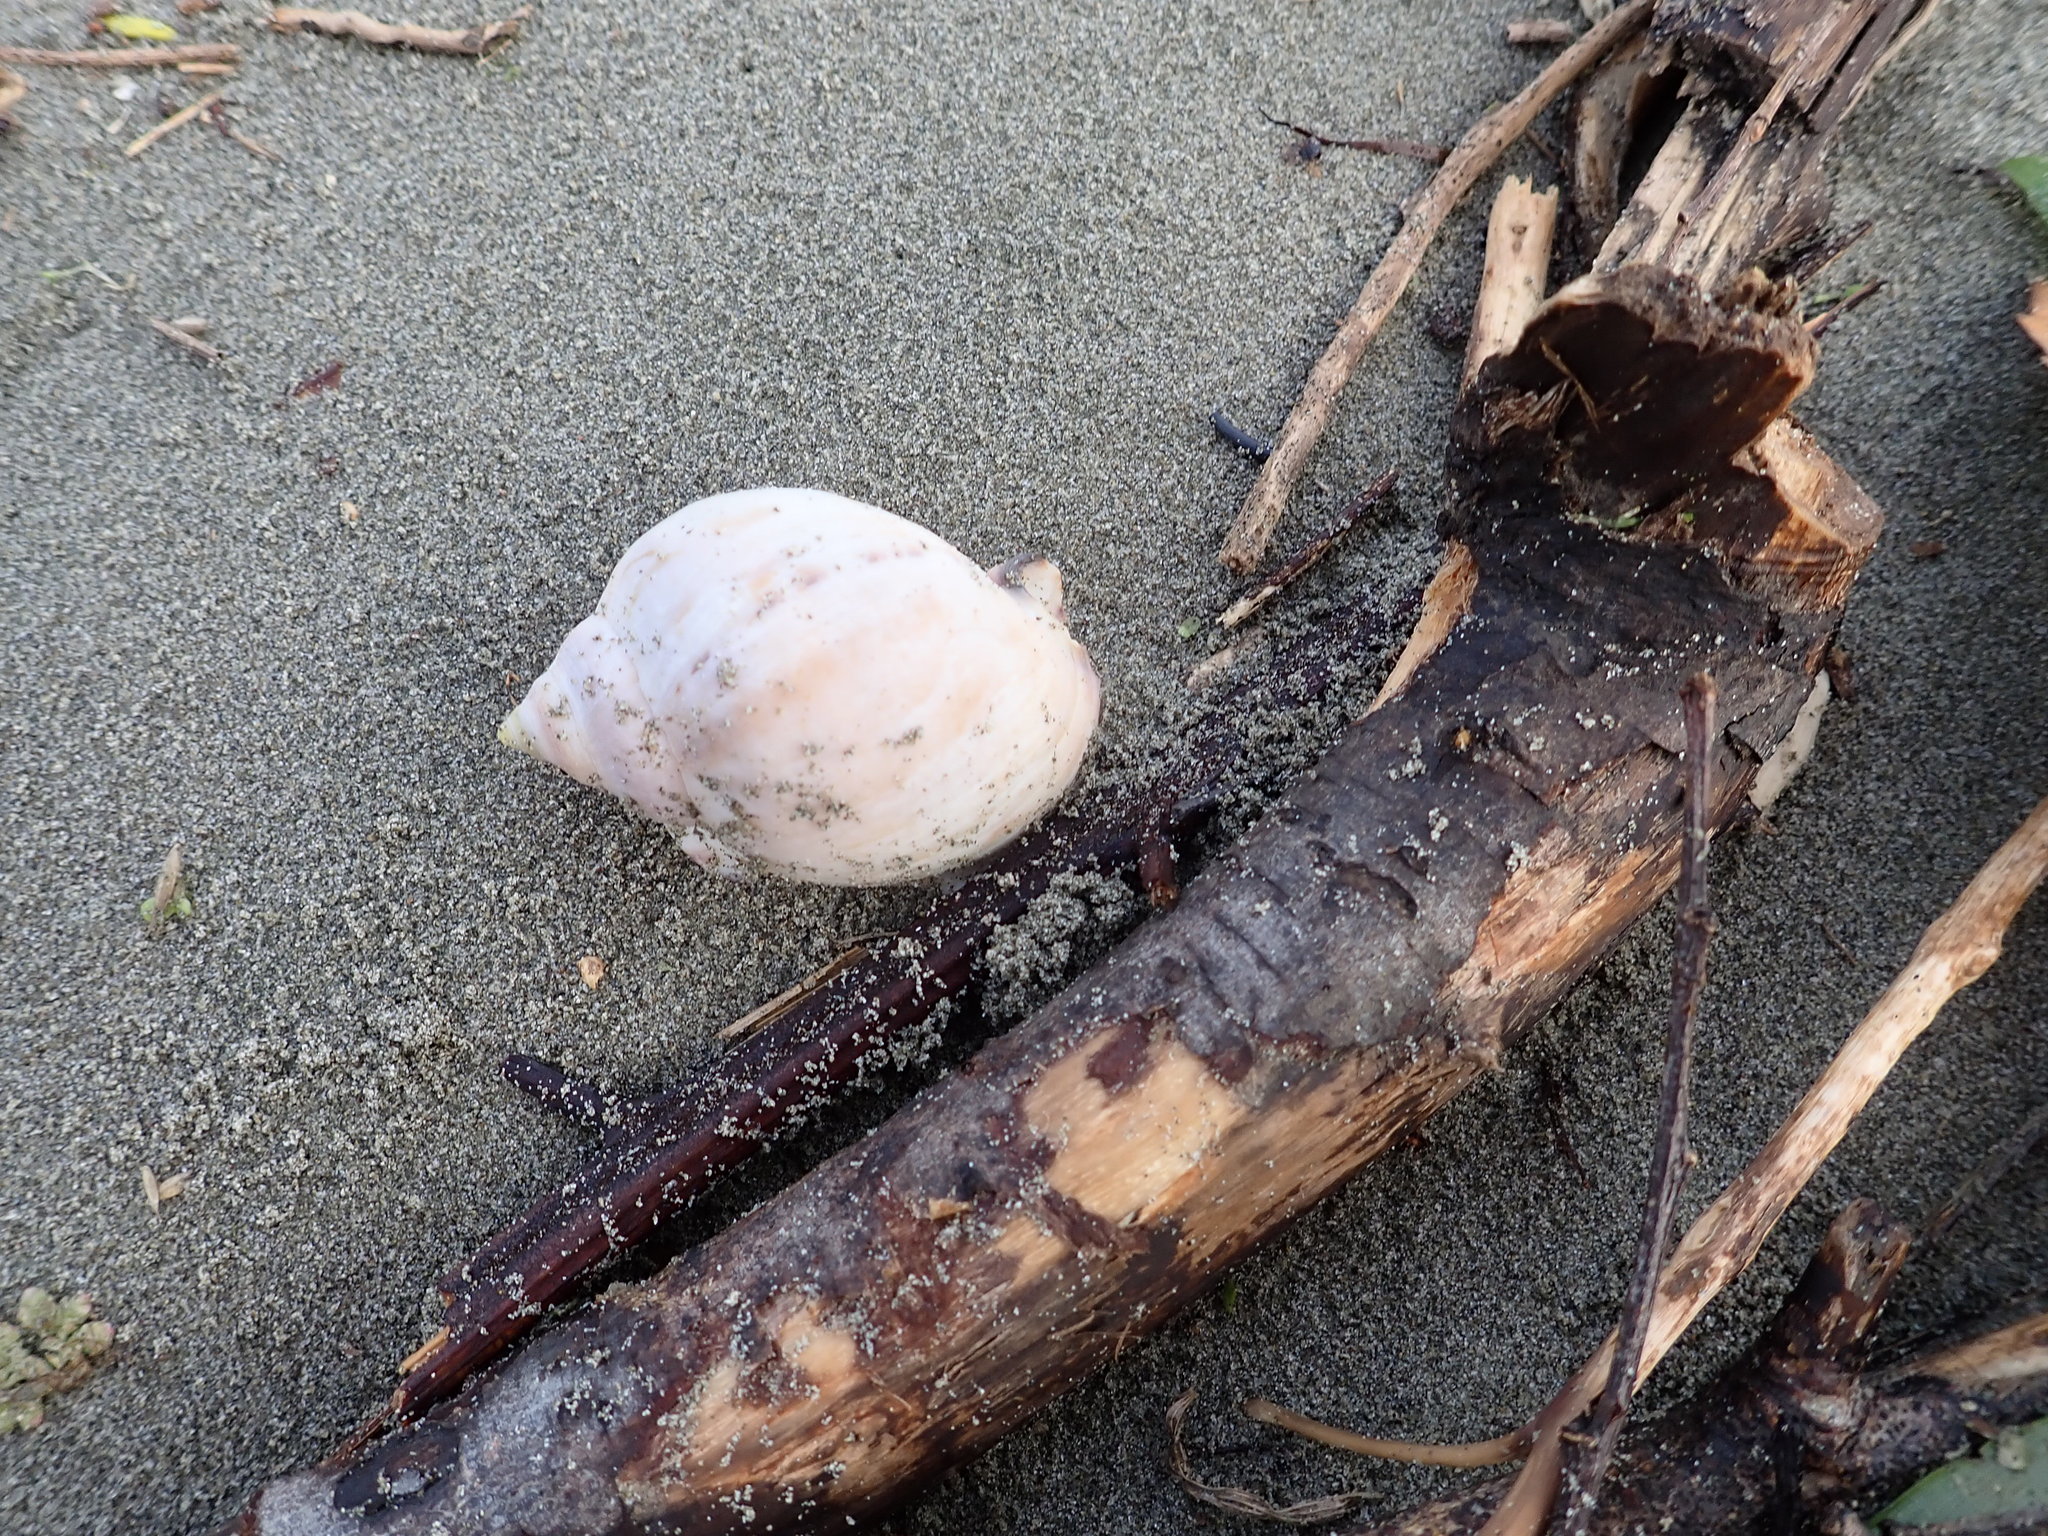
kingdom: Animalia
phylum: Mollusca
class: Gastropoda
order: Littorinimorpha
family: Cassidae
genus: Semicassis
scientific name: Semicassis pyrum
